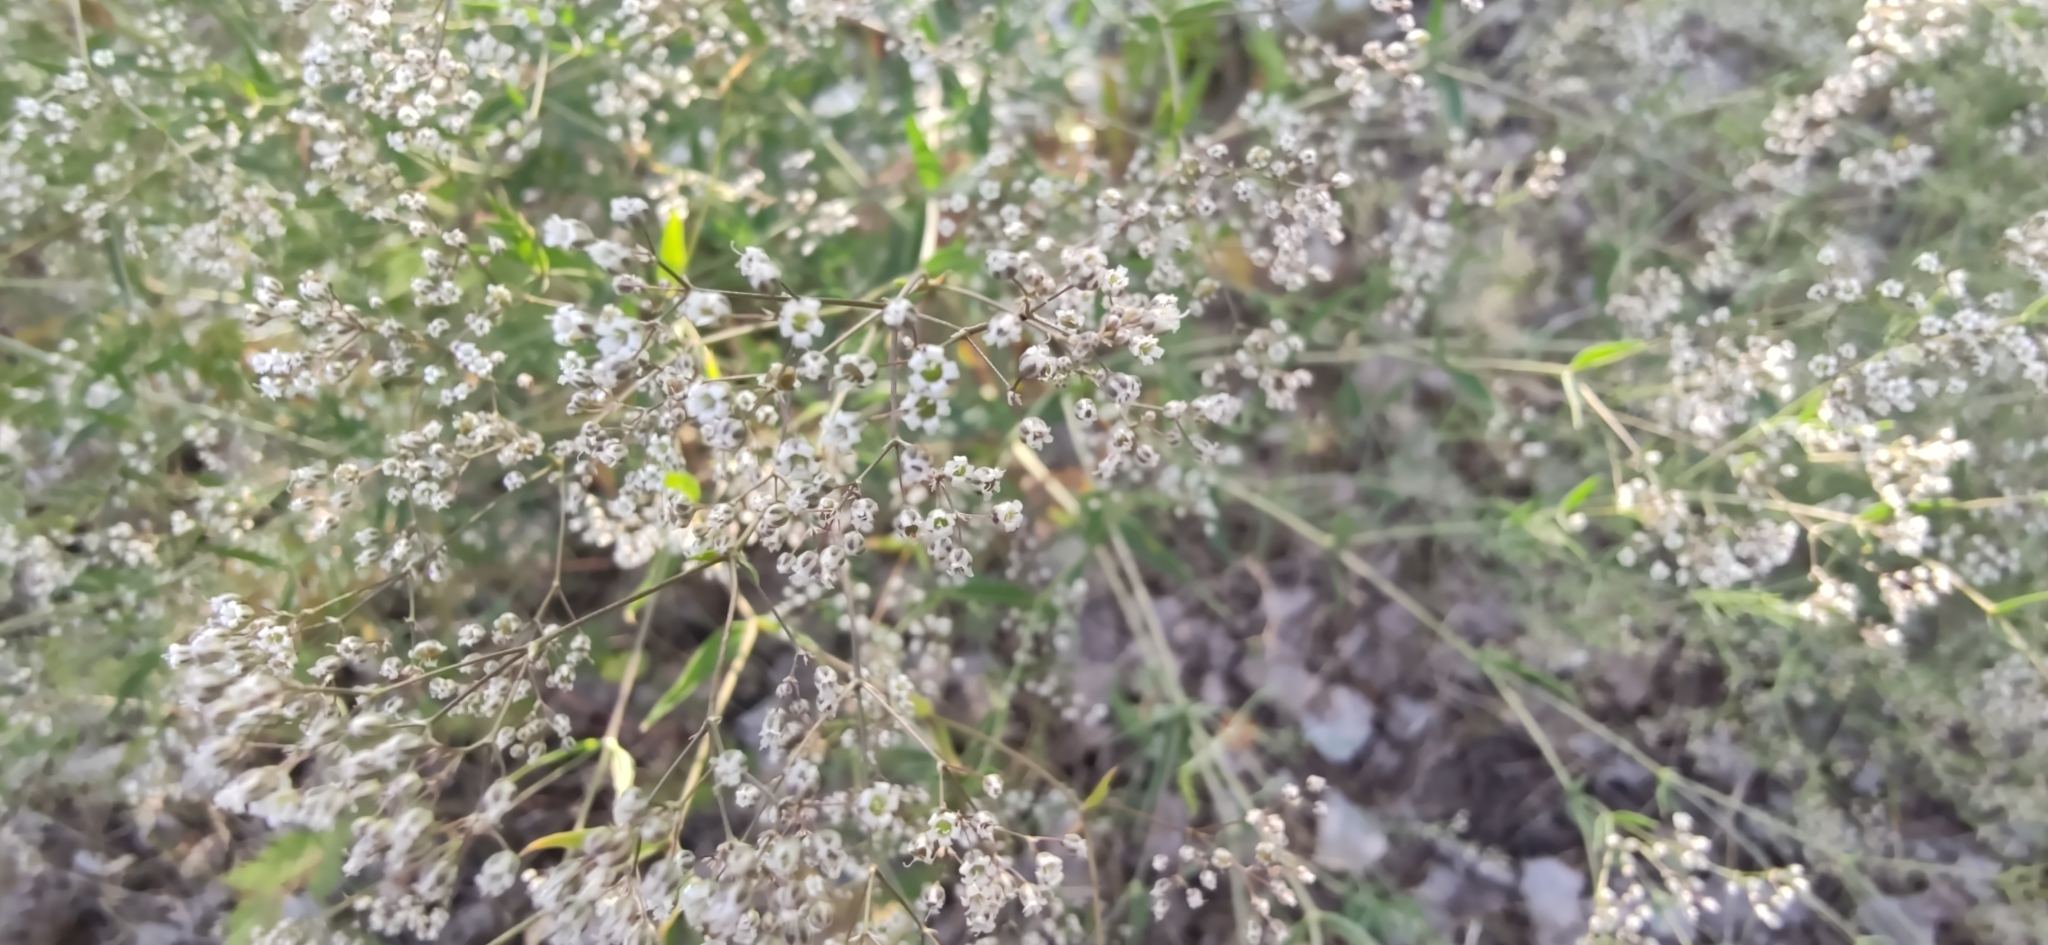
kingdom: Plantae
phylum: Tracheophyta
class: Magnoliopsida
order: Caryophyllales
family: Caryophyllaceae
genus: Gypsophila
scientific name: Gypsophila paniculata
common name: Baby's-breath
